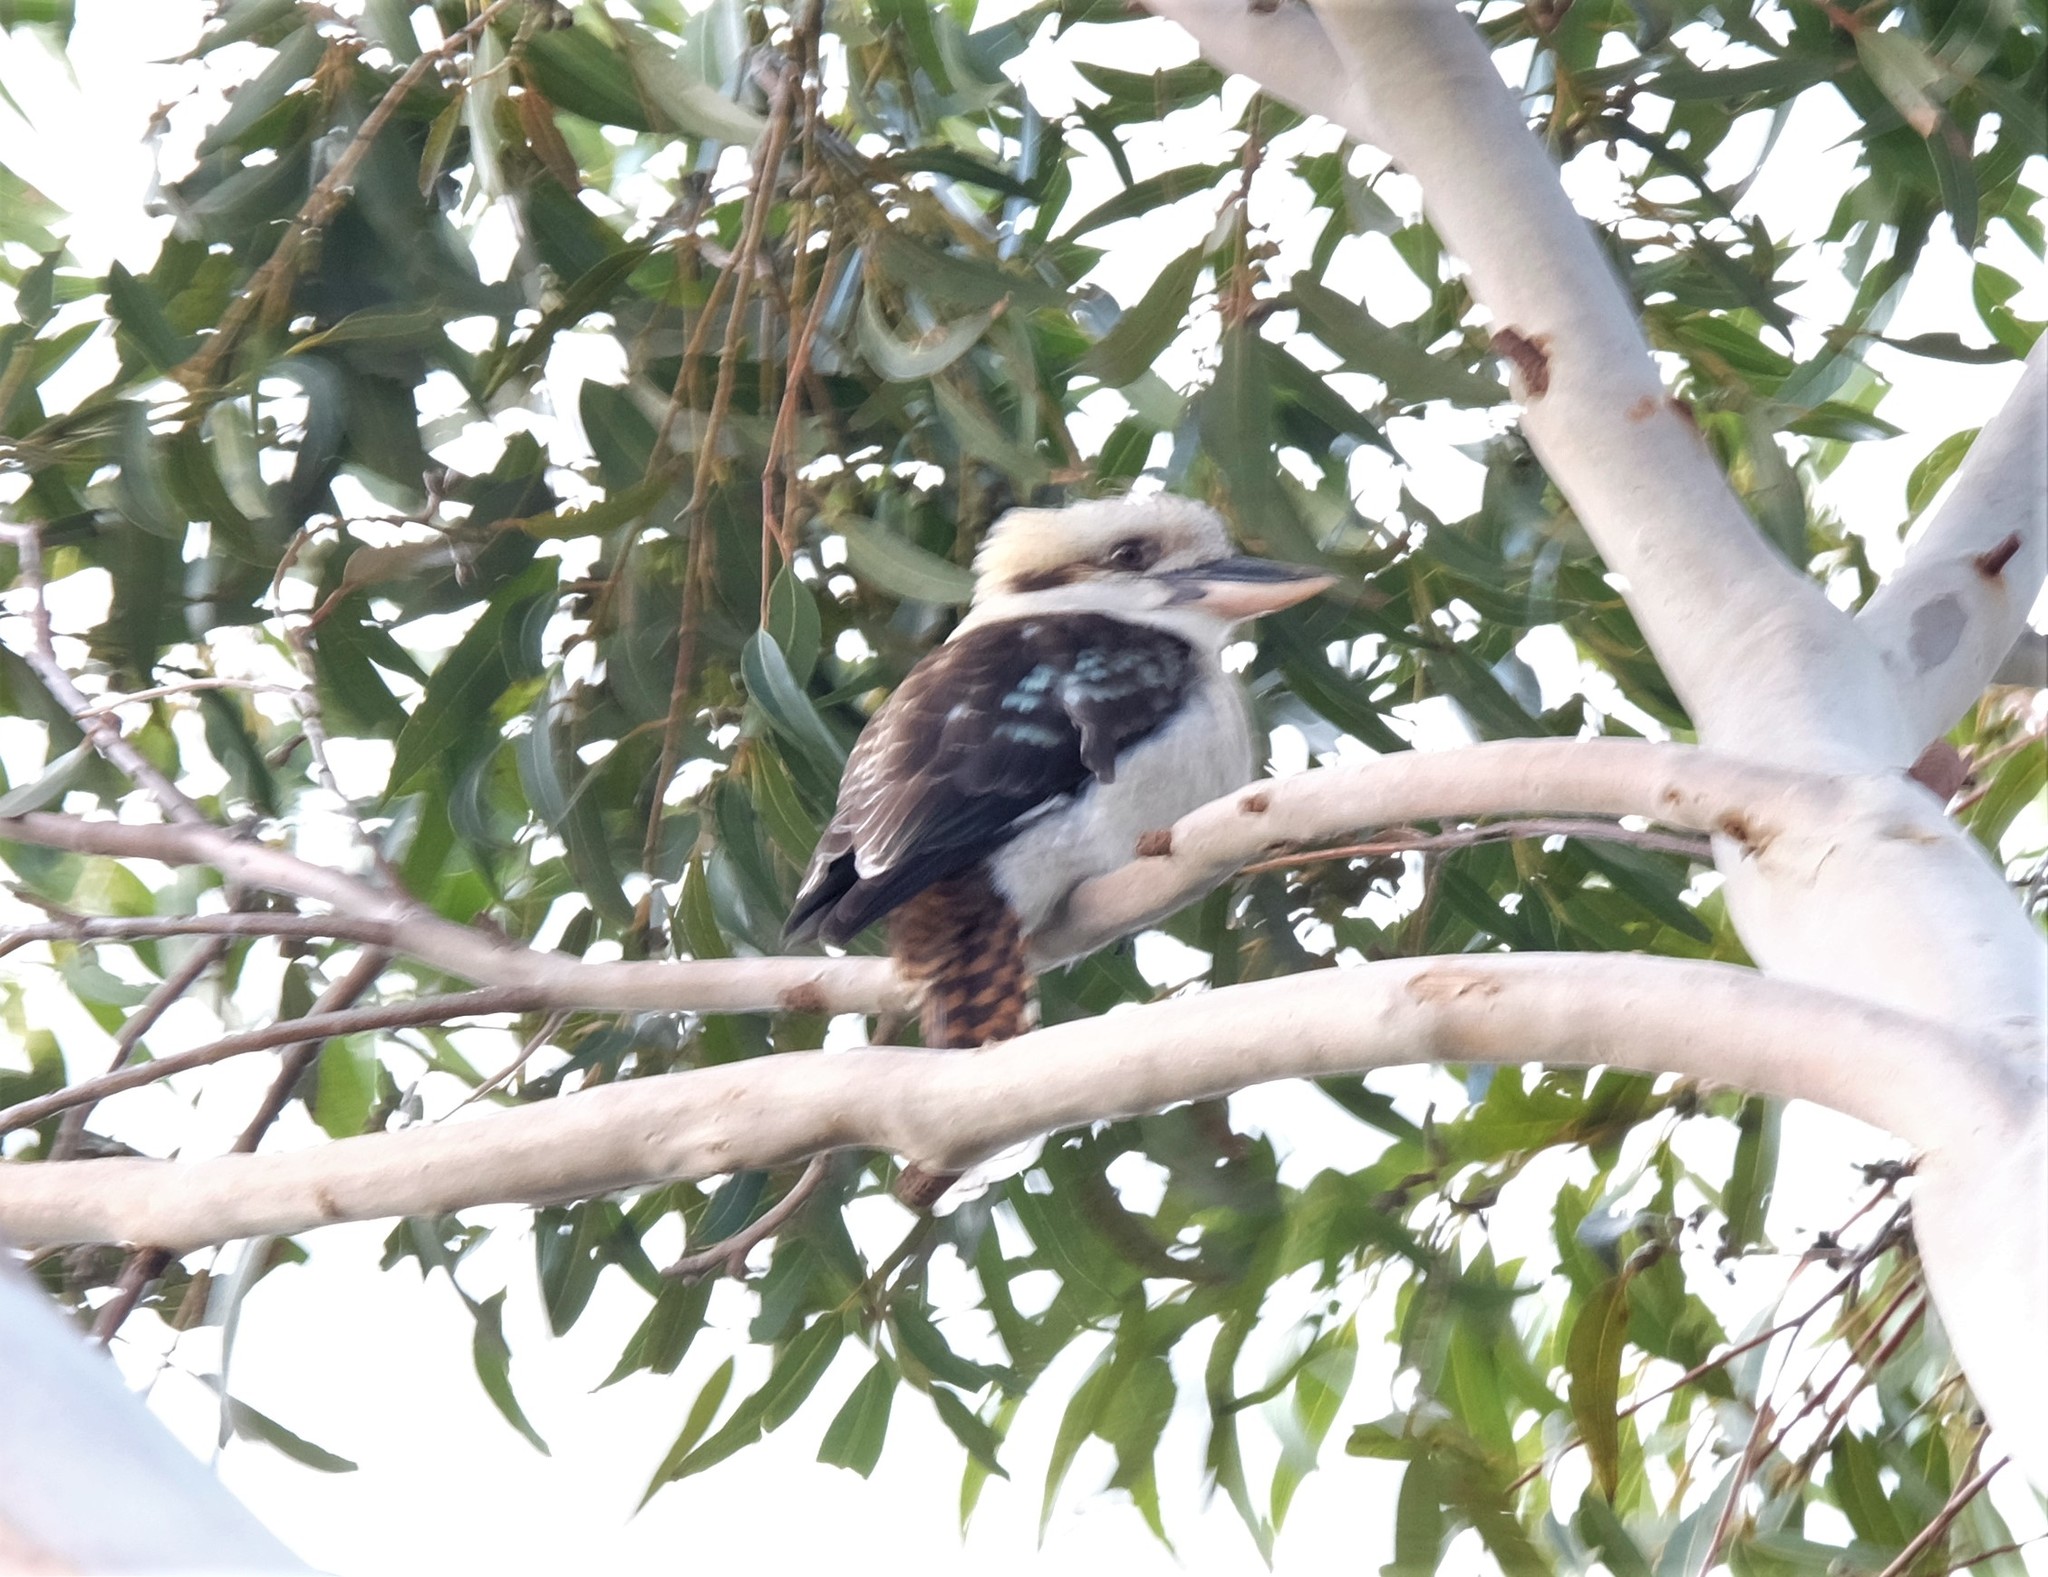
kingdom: Animalia
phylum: Chordata
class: Aves
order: Coraciiformes
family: Alcedinidae
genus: Dacelo
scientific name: Dacelo novaeguineae
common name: Laughing kookaburra
